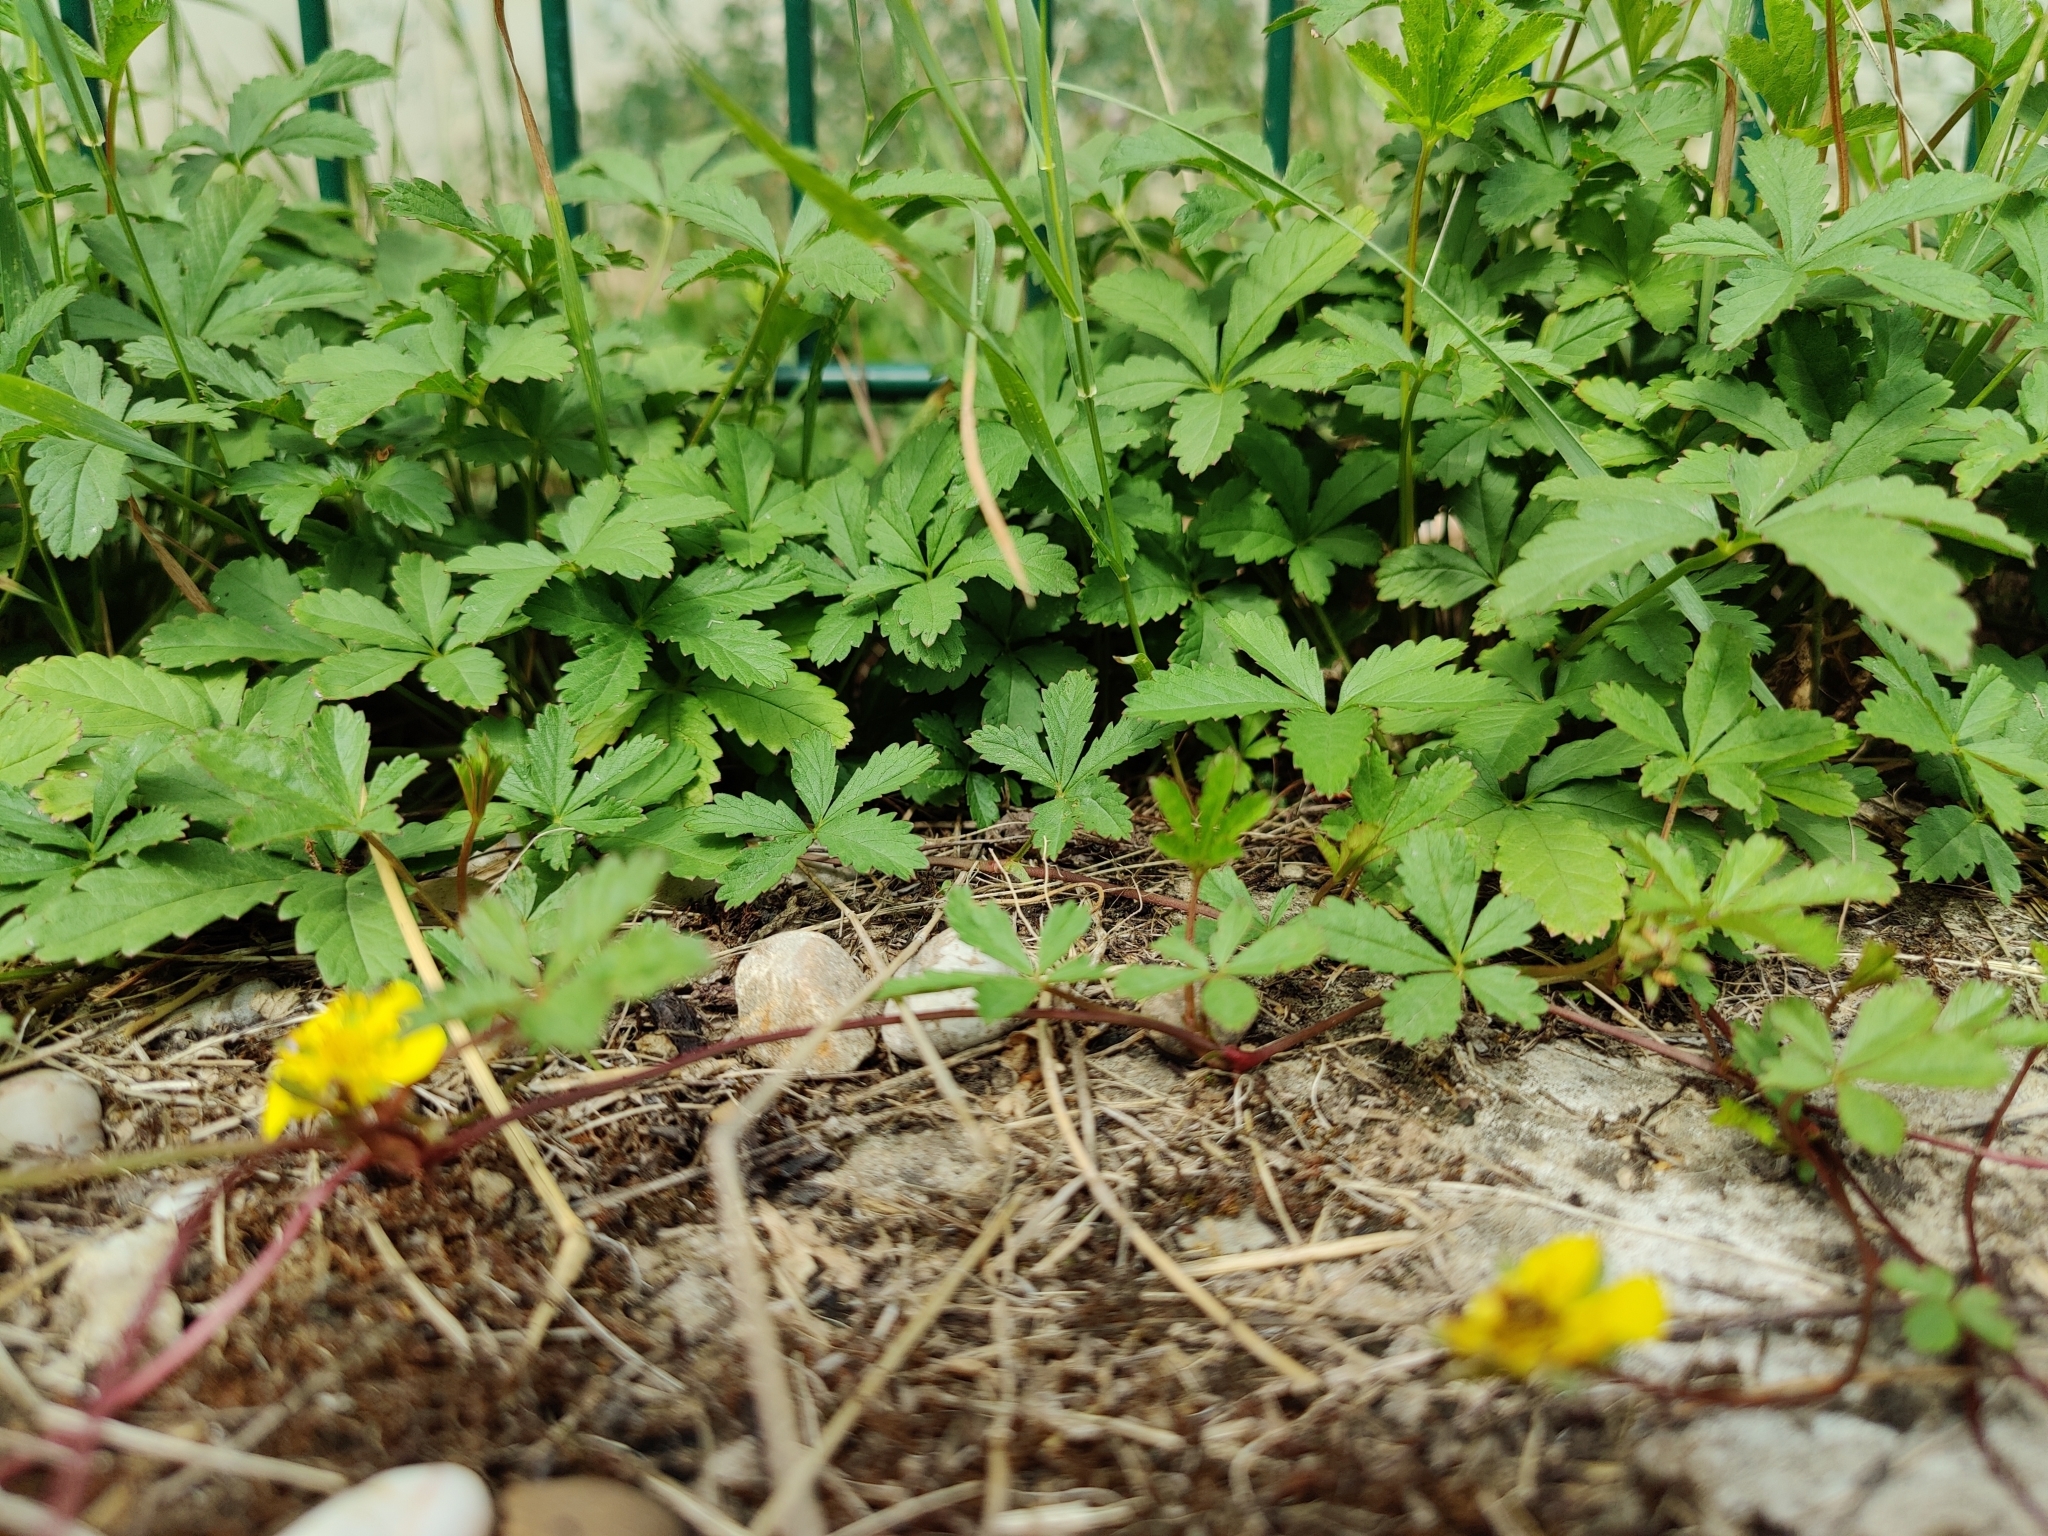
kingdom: Plantae
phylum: Tracheophyta
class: Magnoliopsida
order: Rosales
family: Rosaceae
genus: Potentilla
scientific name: Potentilla reptans
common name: Creeping cinquefoil
